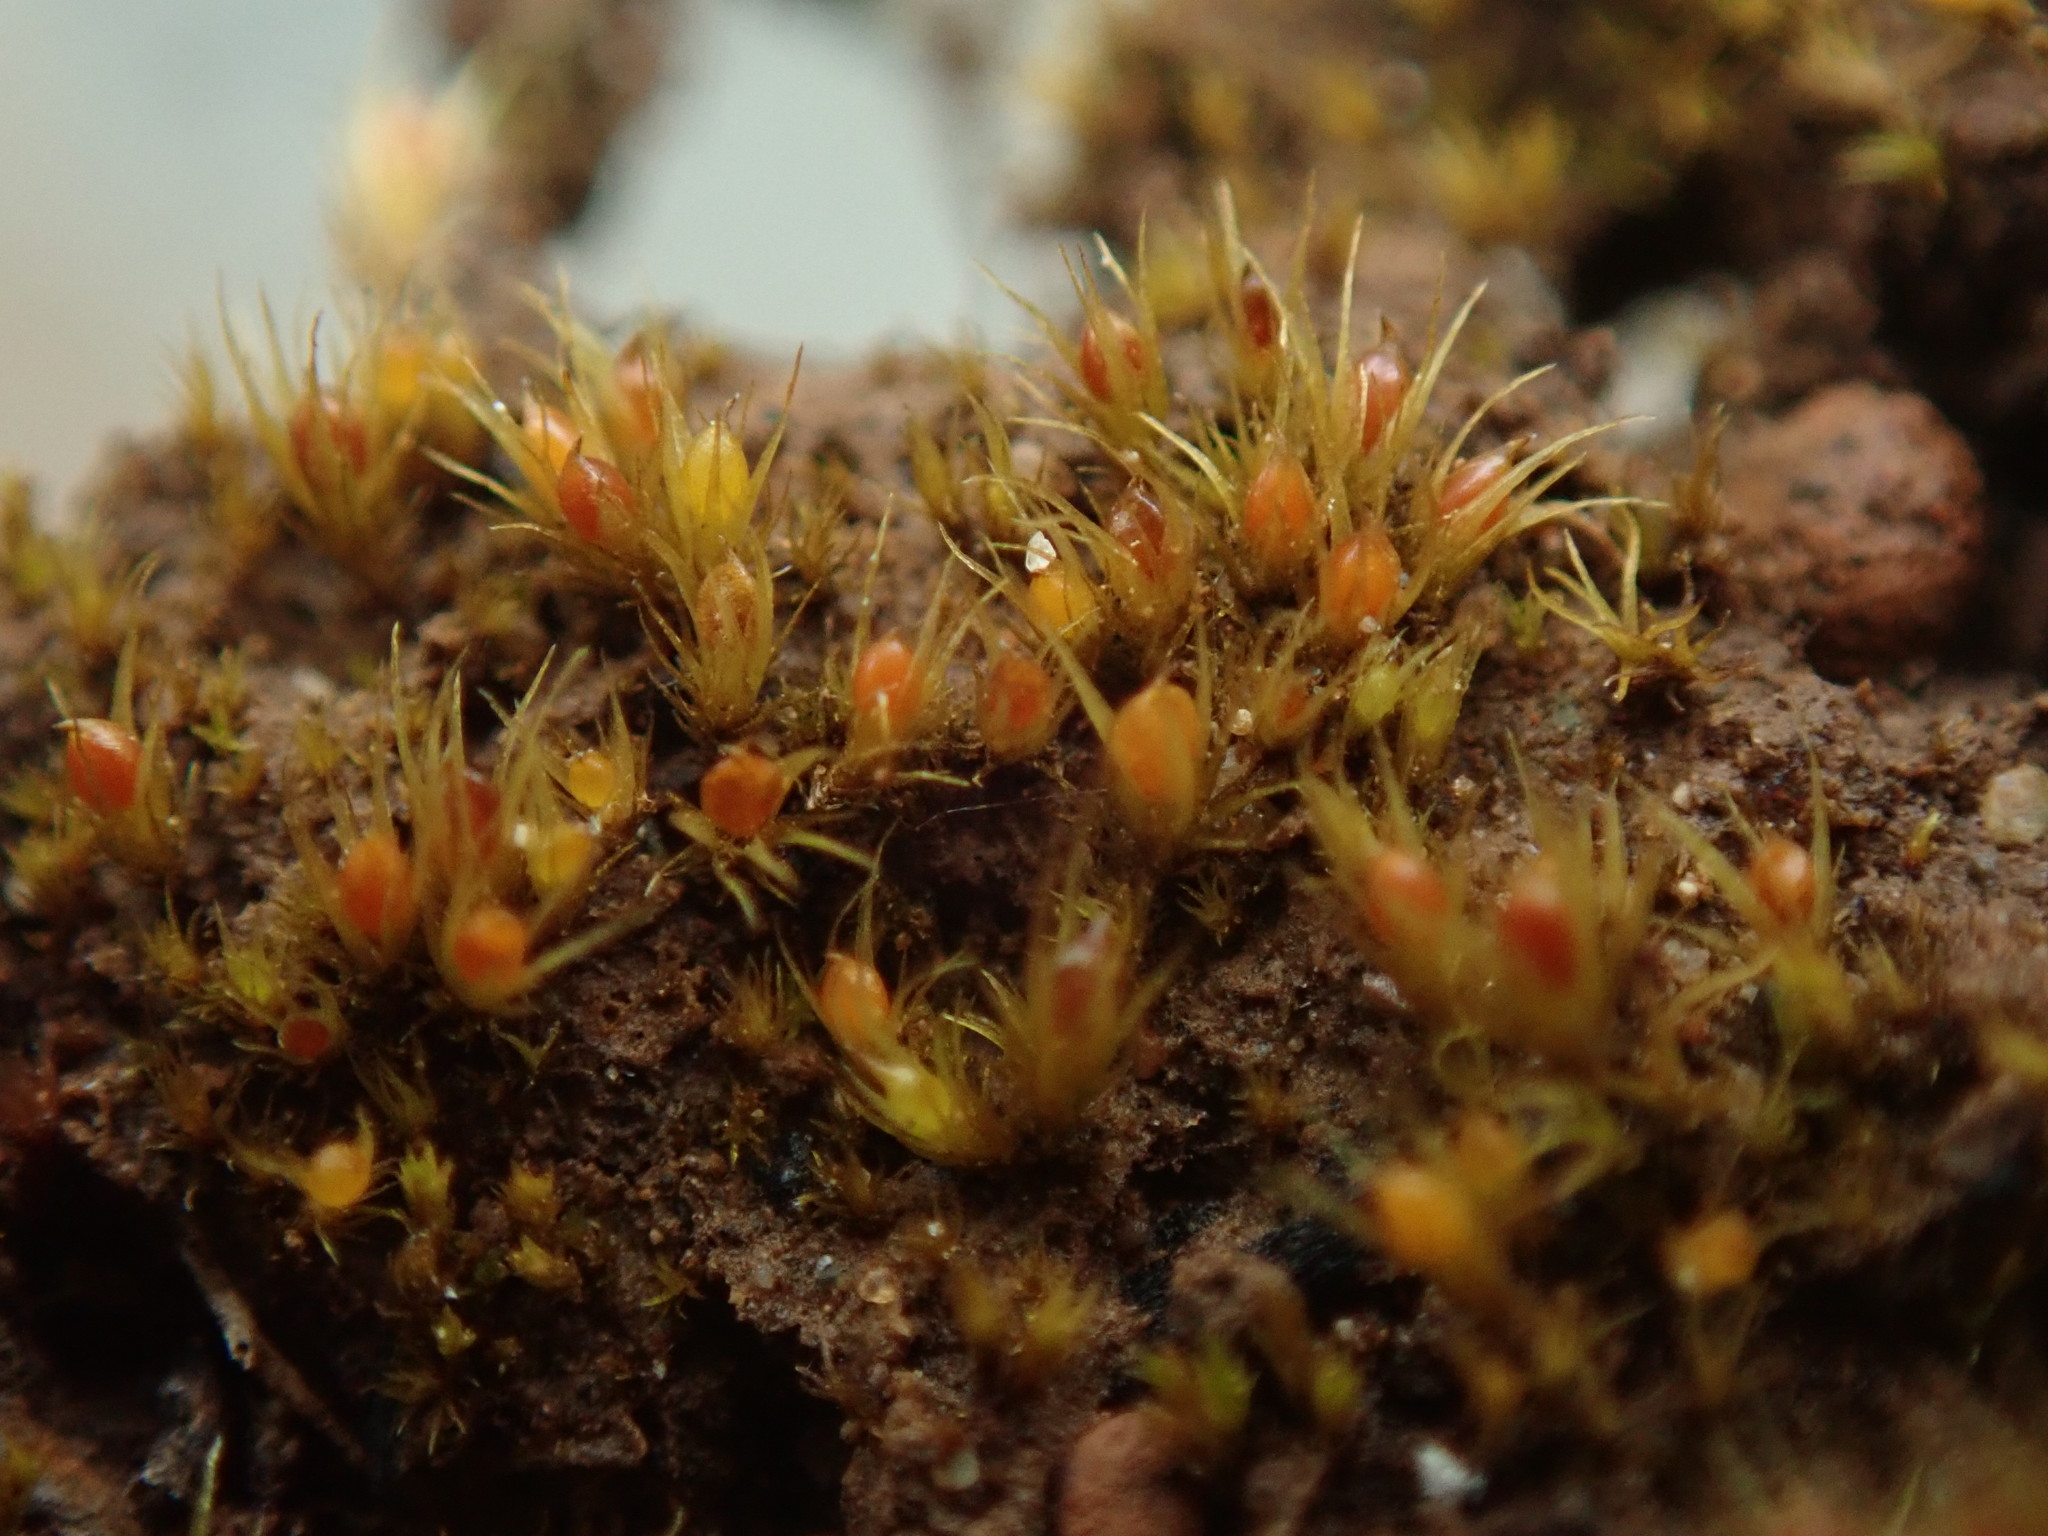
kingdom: Plantae
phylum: Bryophyta
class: Bryopsida
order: Dicranales
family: Ditrichaceae
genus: Pleuridium
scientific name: Pleuridium acuminatum
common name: Taper-leaved earth-moss
